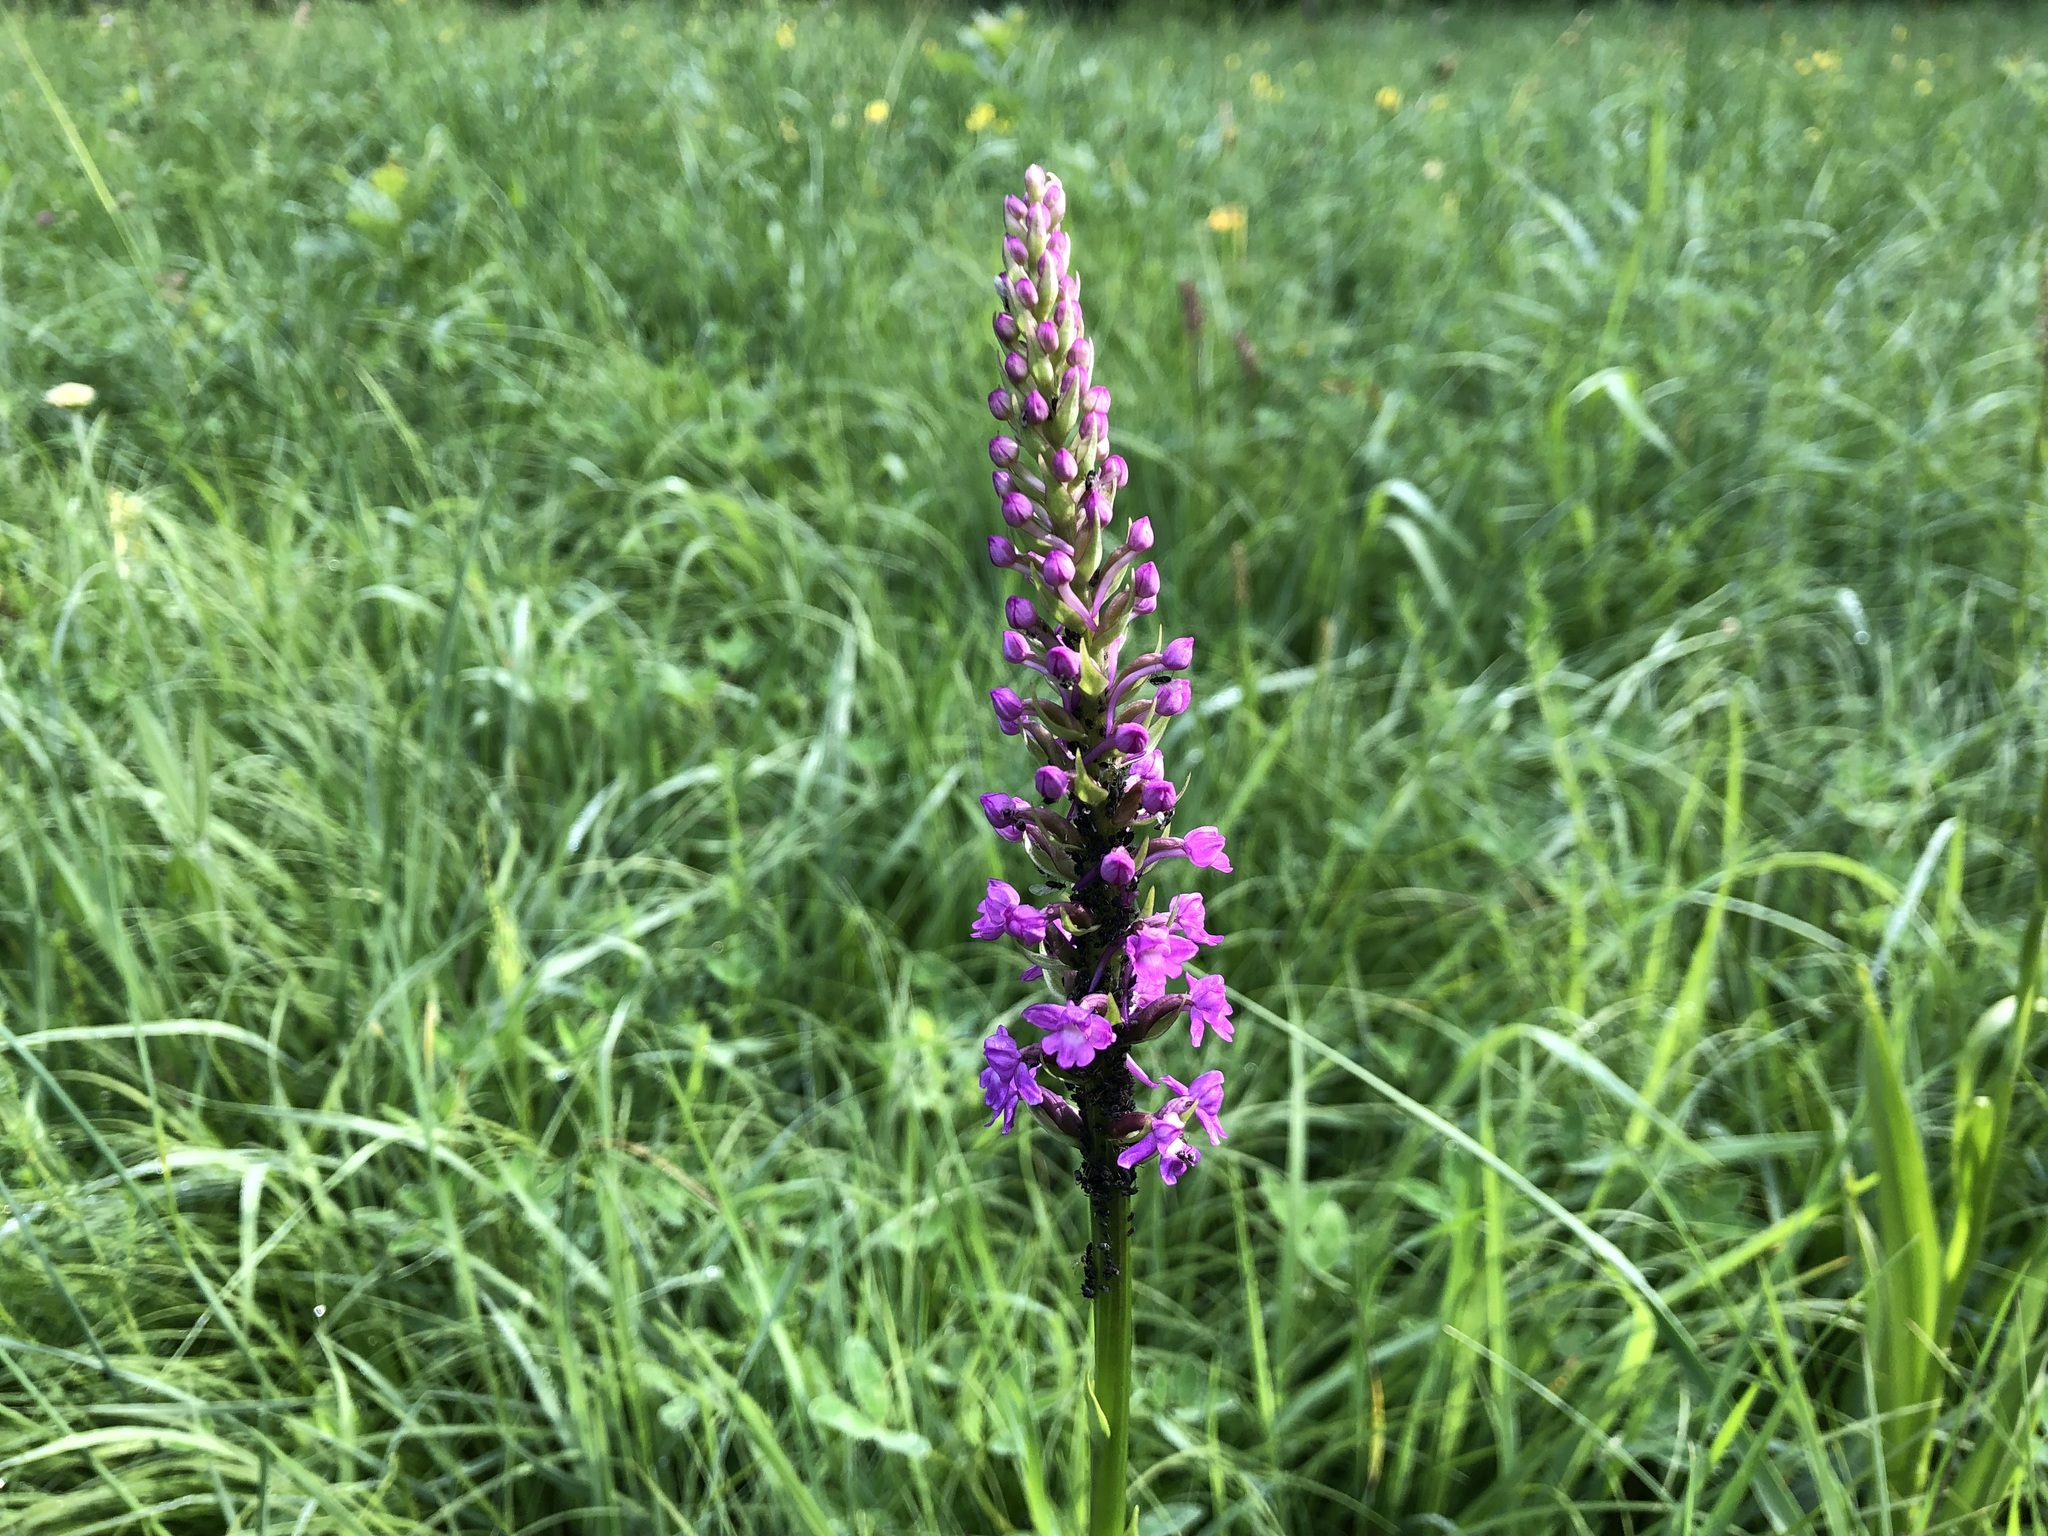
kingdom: Plantae
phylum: Tracheophyta
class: Liliopsida
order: Asparagales
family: Orchidaceae
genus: Gymnadenia
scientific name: Gymnadenia conopsea
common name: Fragrant orchid
